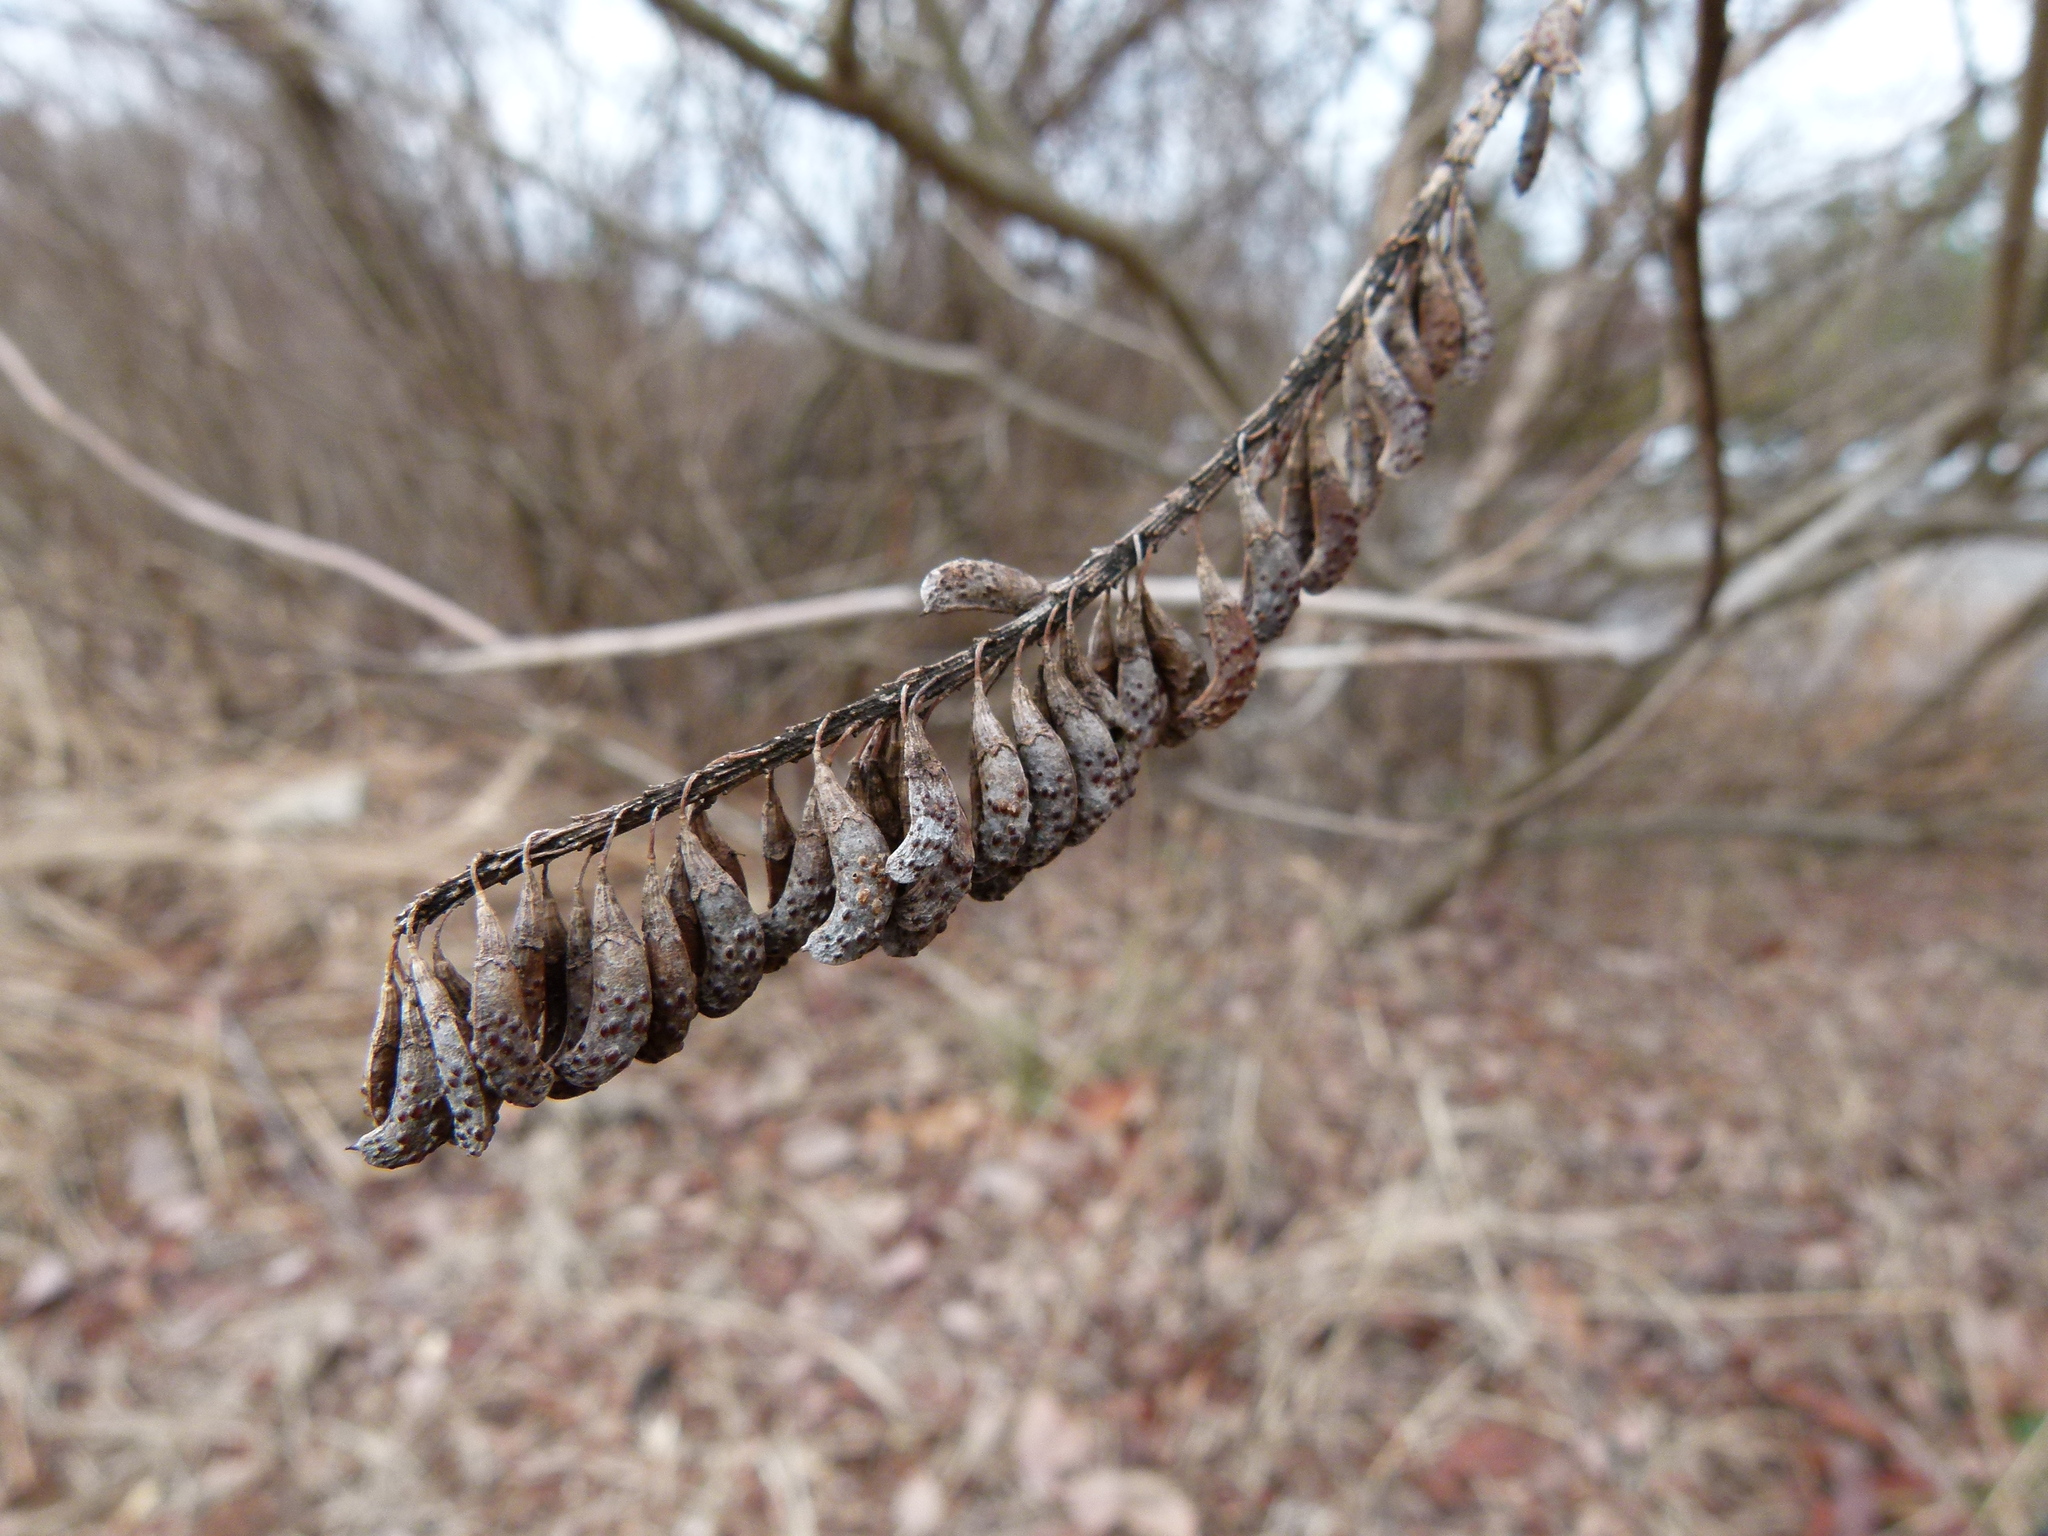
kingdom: Plantae
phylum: Tracheophyta
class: Magnoliopsida
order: Fabales
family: Fabaceae
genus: Amorpha
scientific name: Amorpha fruticosa
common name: False indigo
